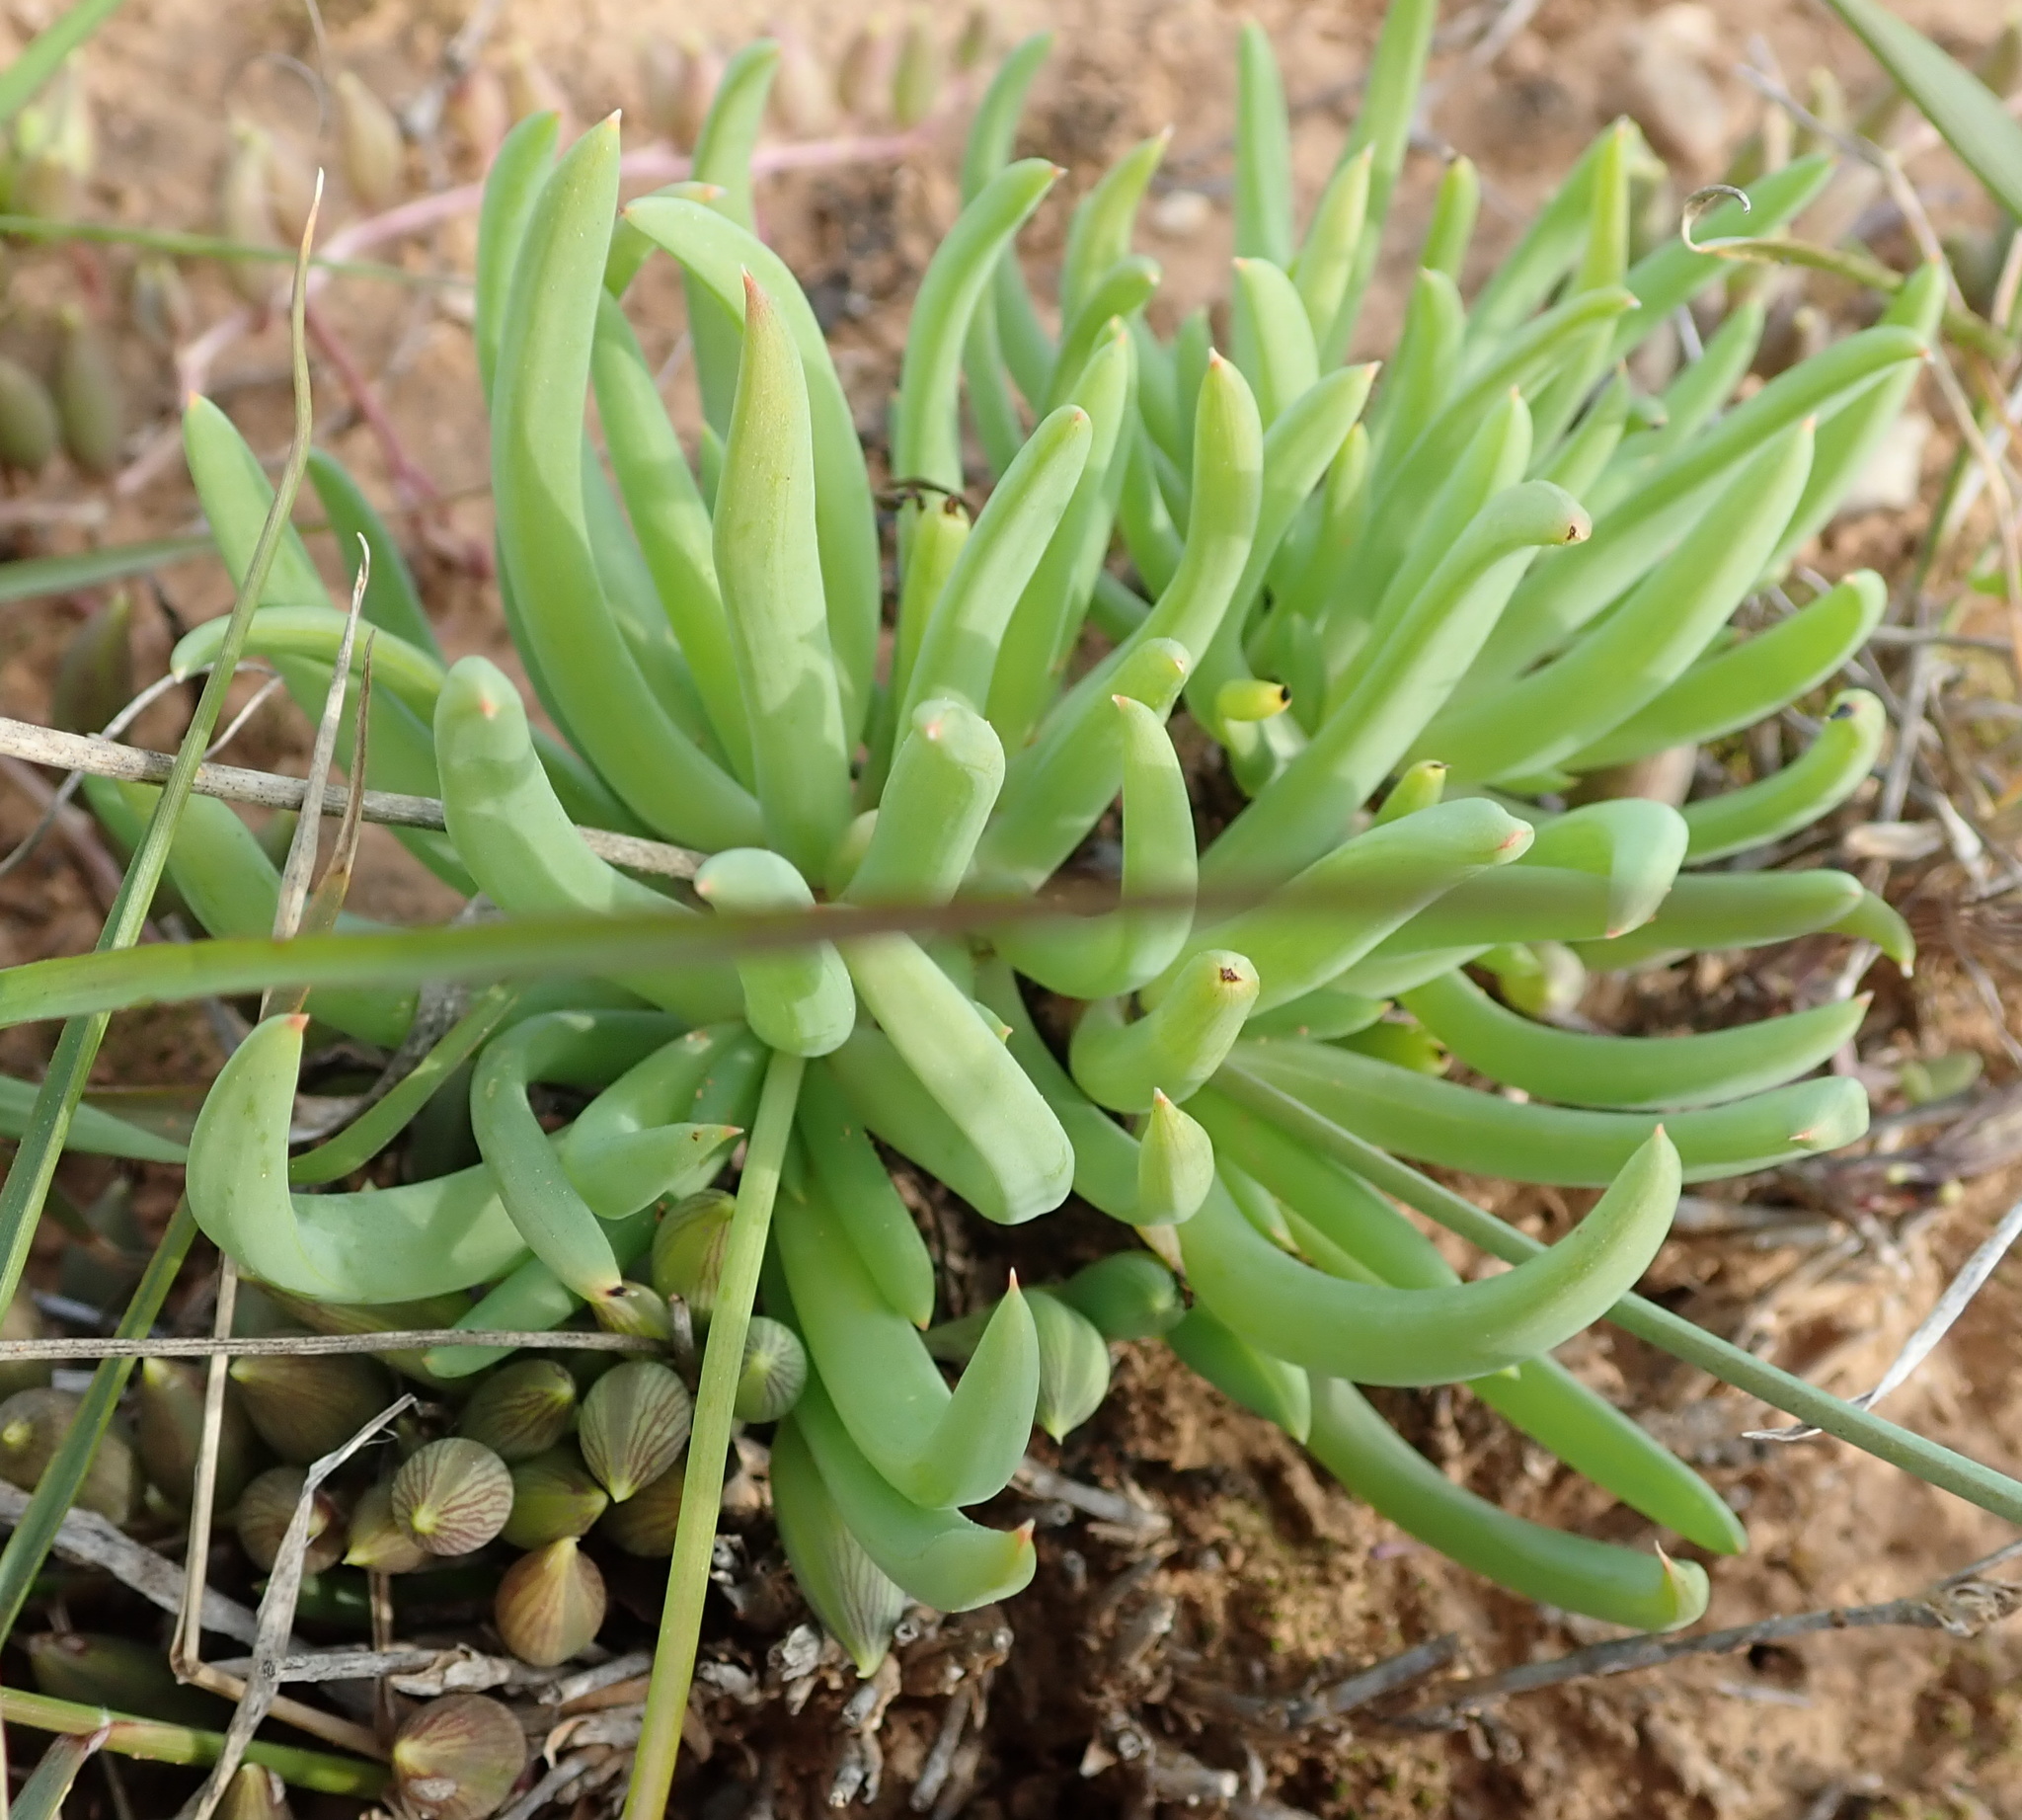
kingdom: Plantae
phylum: Tracheophyta
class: Liliopsida
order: Asparagales
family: Asphodelaceae
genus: Bulbine
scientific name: Bulbine frutescens
